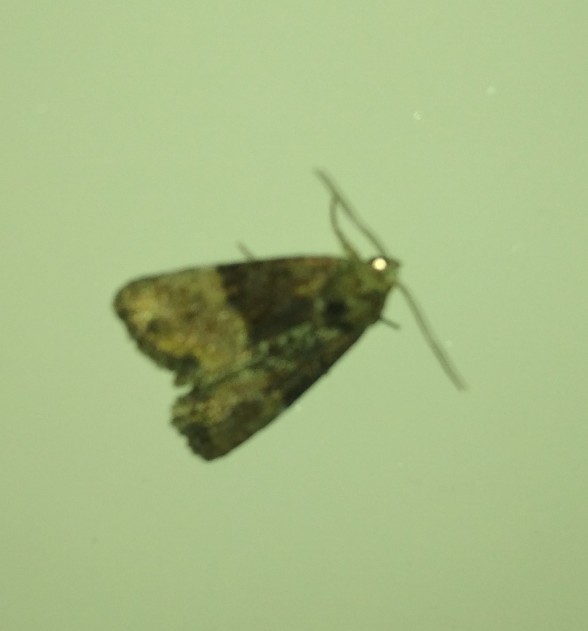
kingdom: Animalia
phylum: Arthropoda
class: Insecta
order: Lepidoptera
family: Noctuidae
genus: Mesoligia
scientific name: Mesoligia furuncula
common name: Cloaked minor
